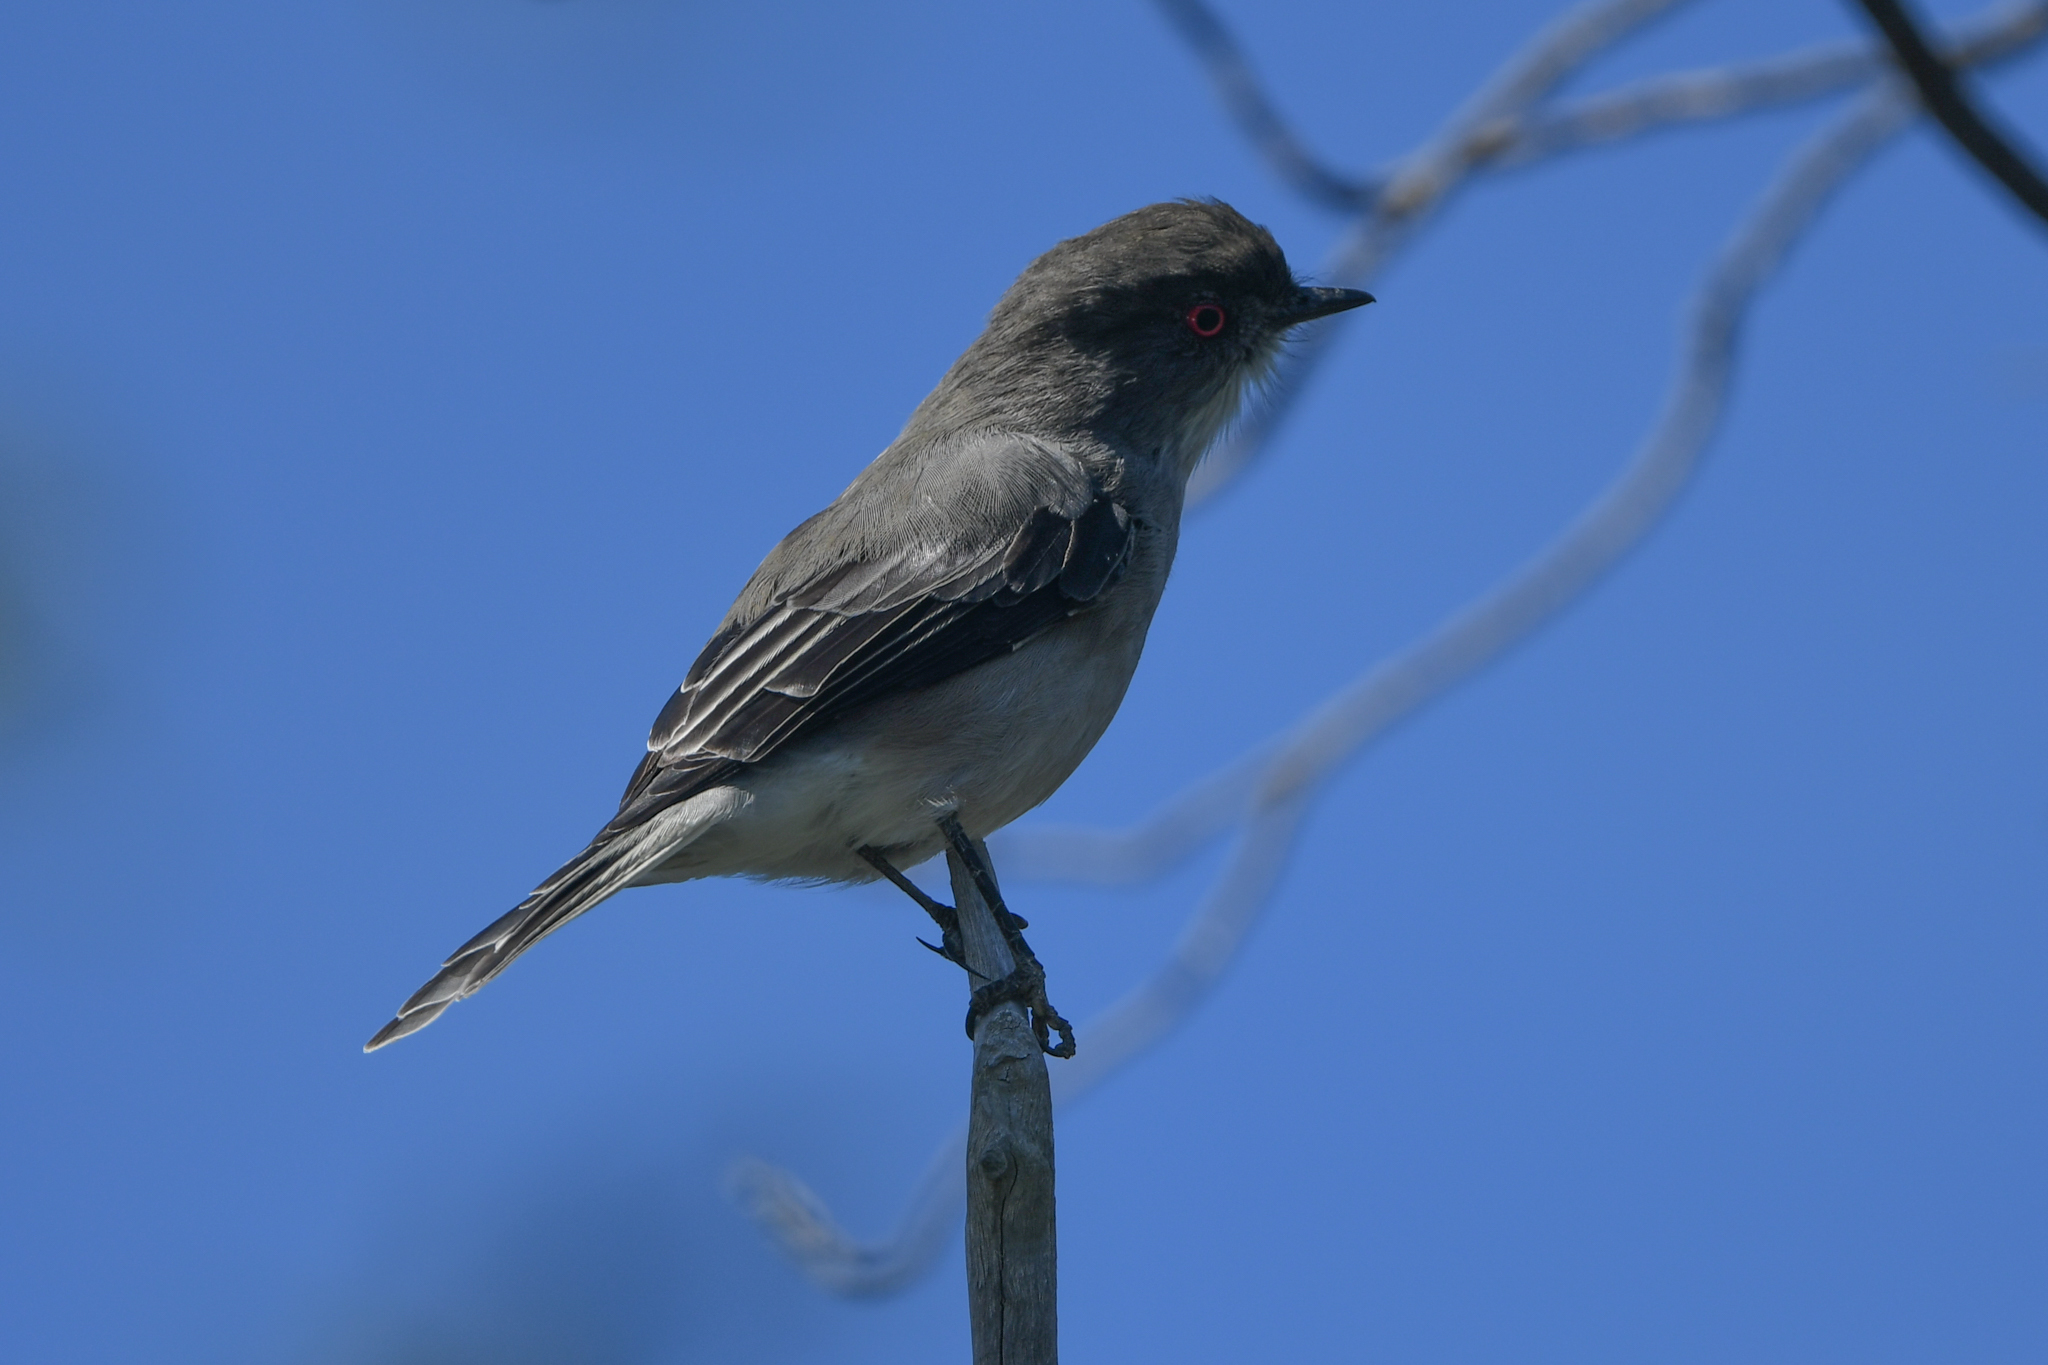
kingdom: Animalia
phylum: Chordata
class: Aves
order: Passeriformes
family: Tyrannidae
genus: Xolmis
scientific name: Xolmis pyrope
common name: Fire-eyed diucon
